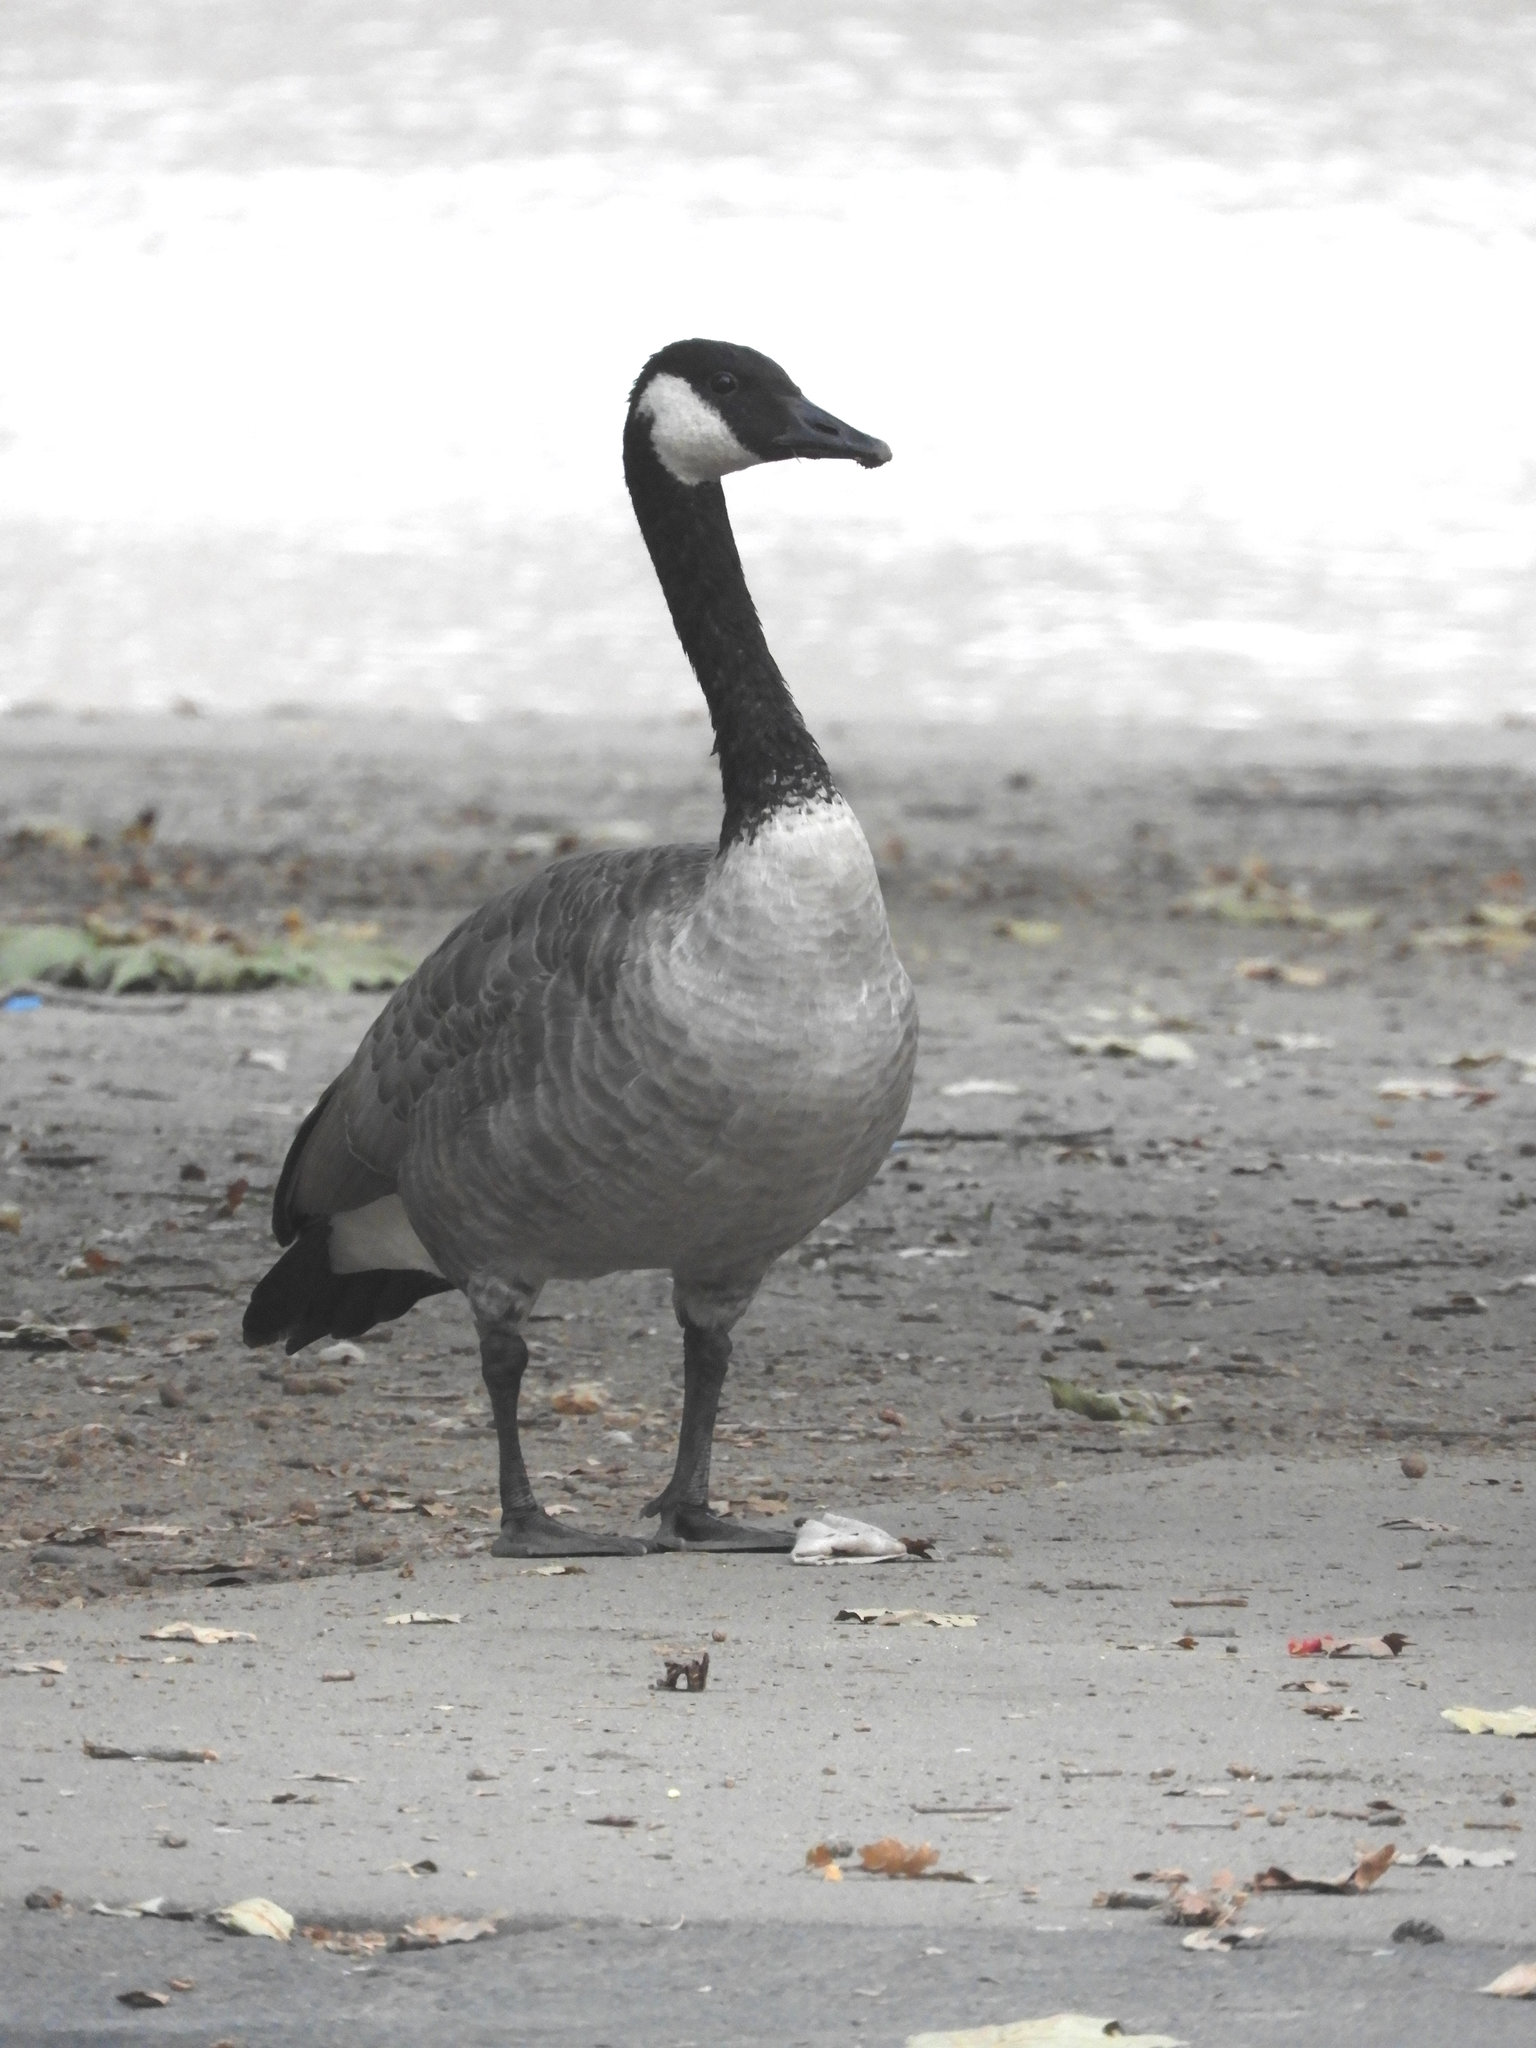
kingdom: Animalia
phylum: Chordata
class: Aves
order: Anseriformes
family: Anatidae
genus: Branta
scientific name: Branta canadensis
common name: Canada goose
